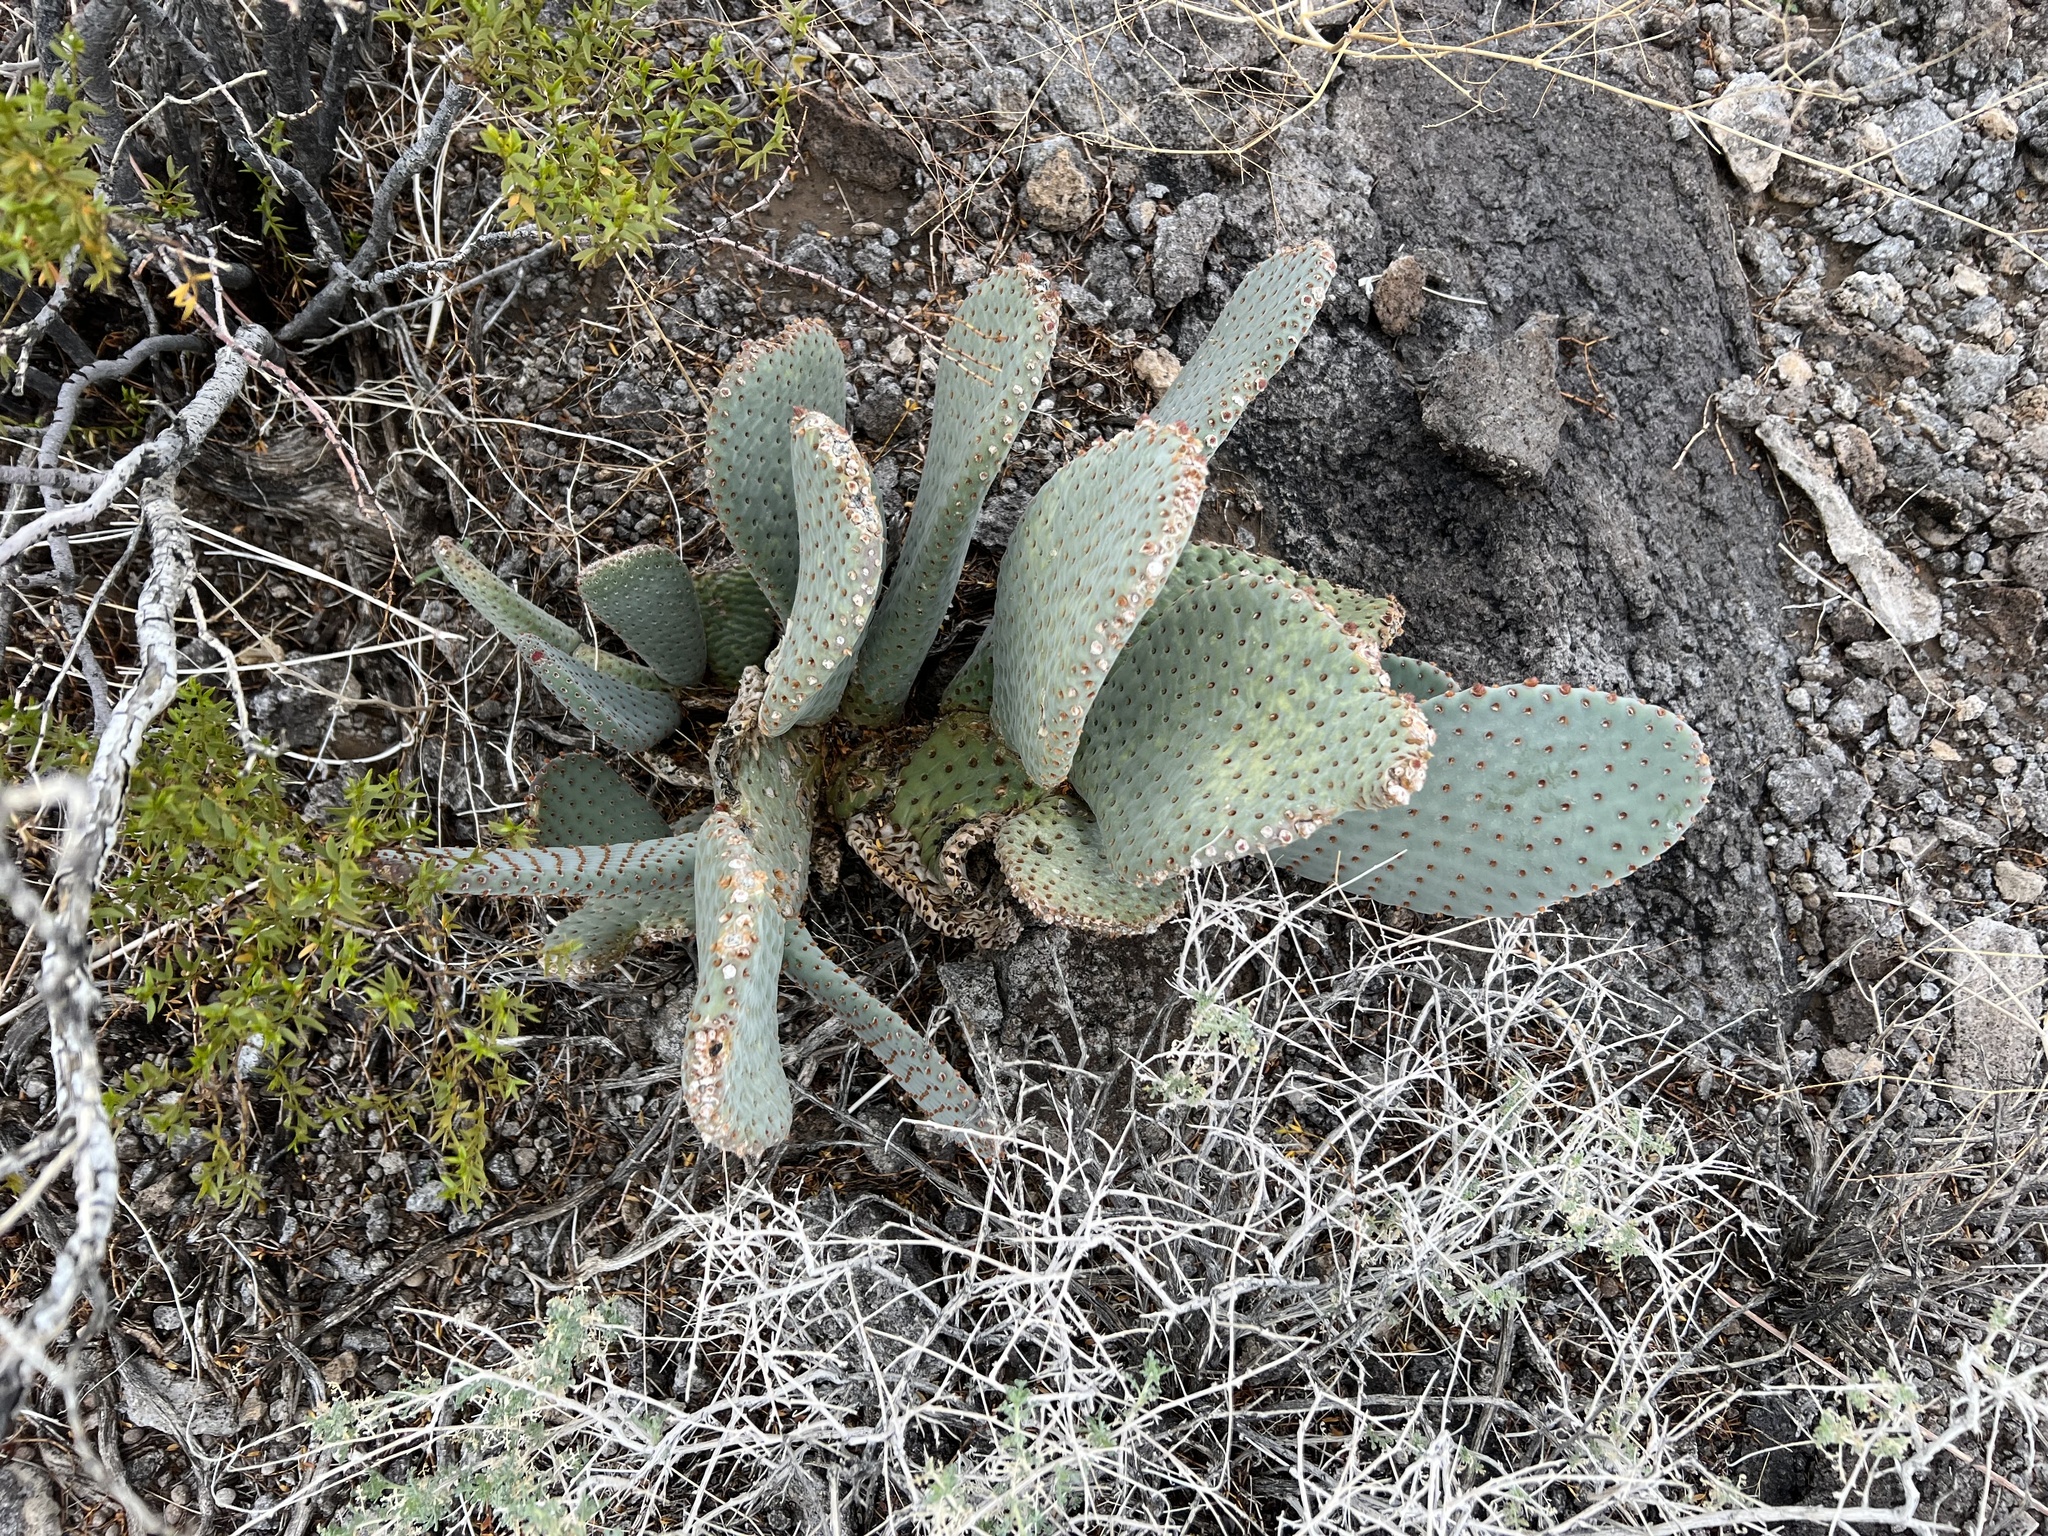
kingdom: Plantae
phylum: Tracheophyta
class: Magnoliopsida
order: Caryophyllales
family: Cactaceae
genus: Opuntia
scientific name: Opuntia basilaris
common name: Beavertail prickly-pear
